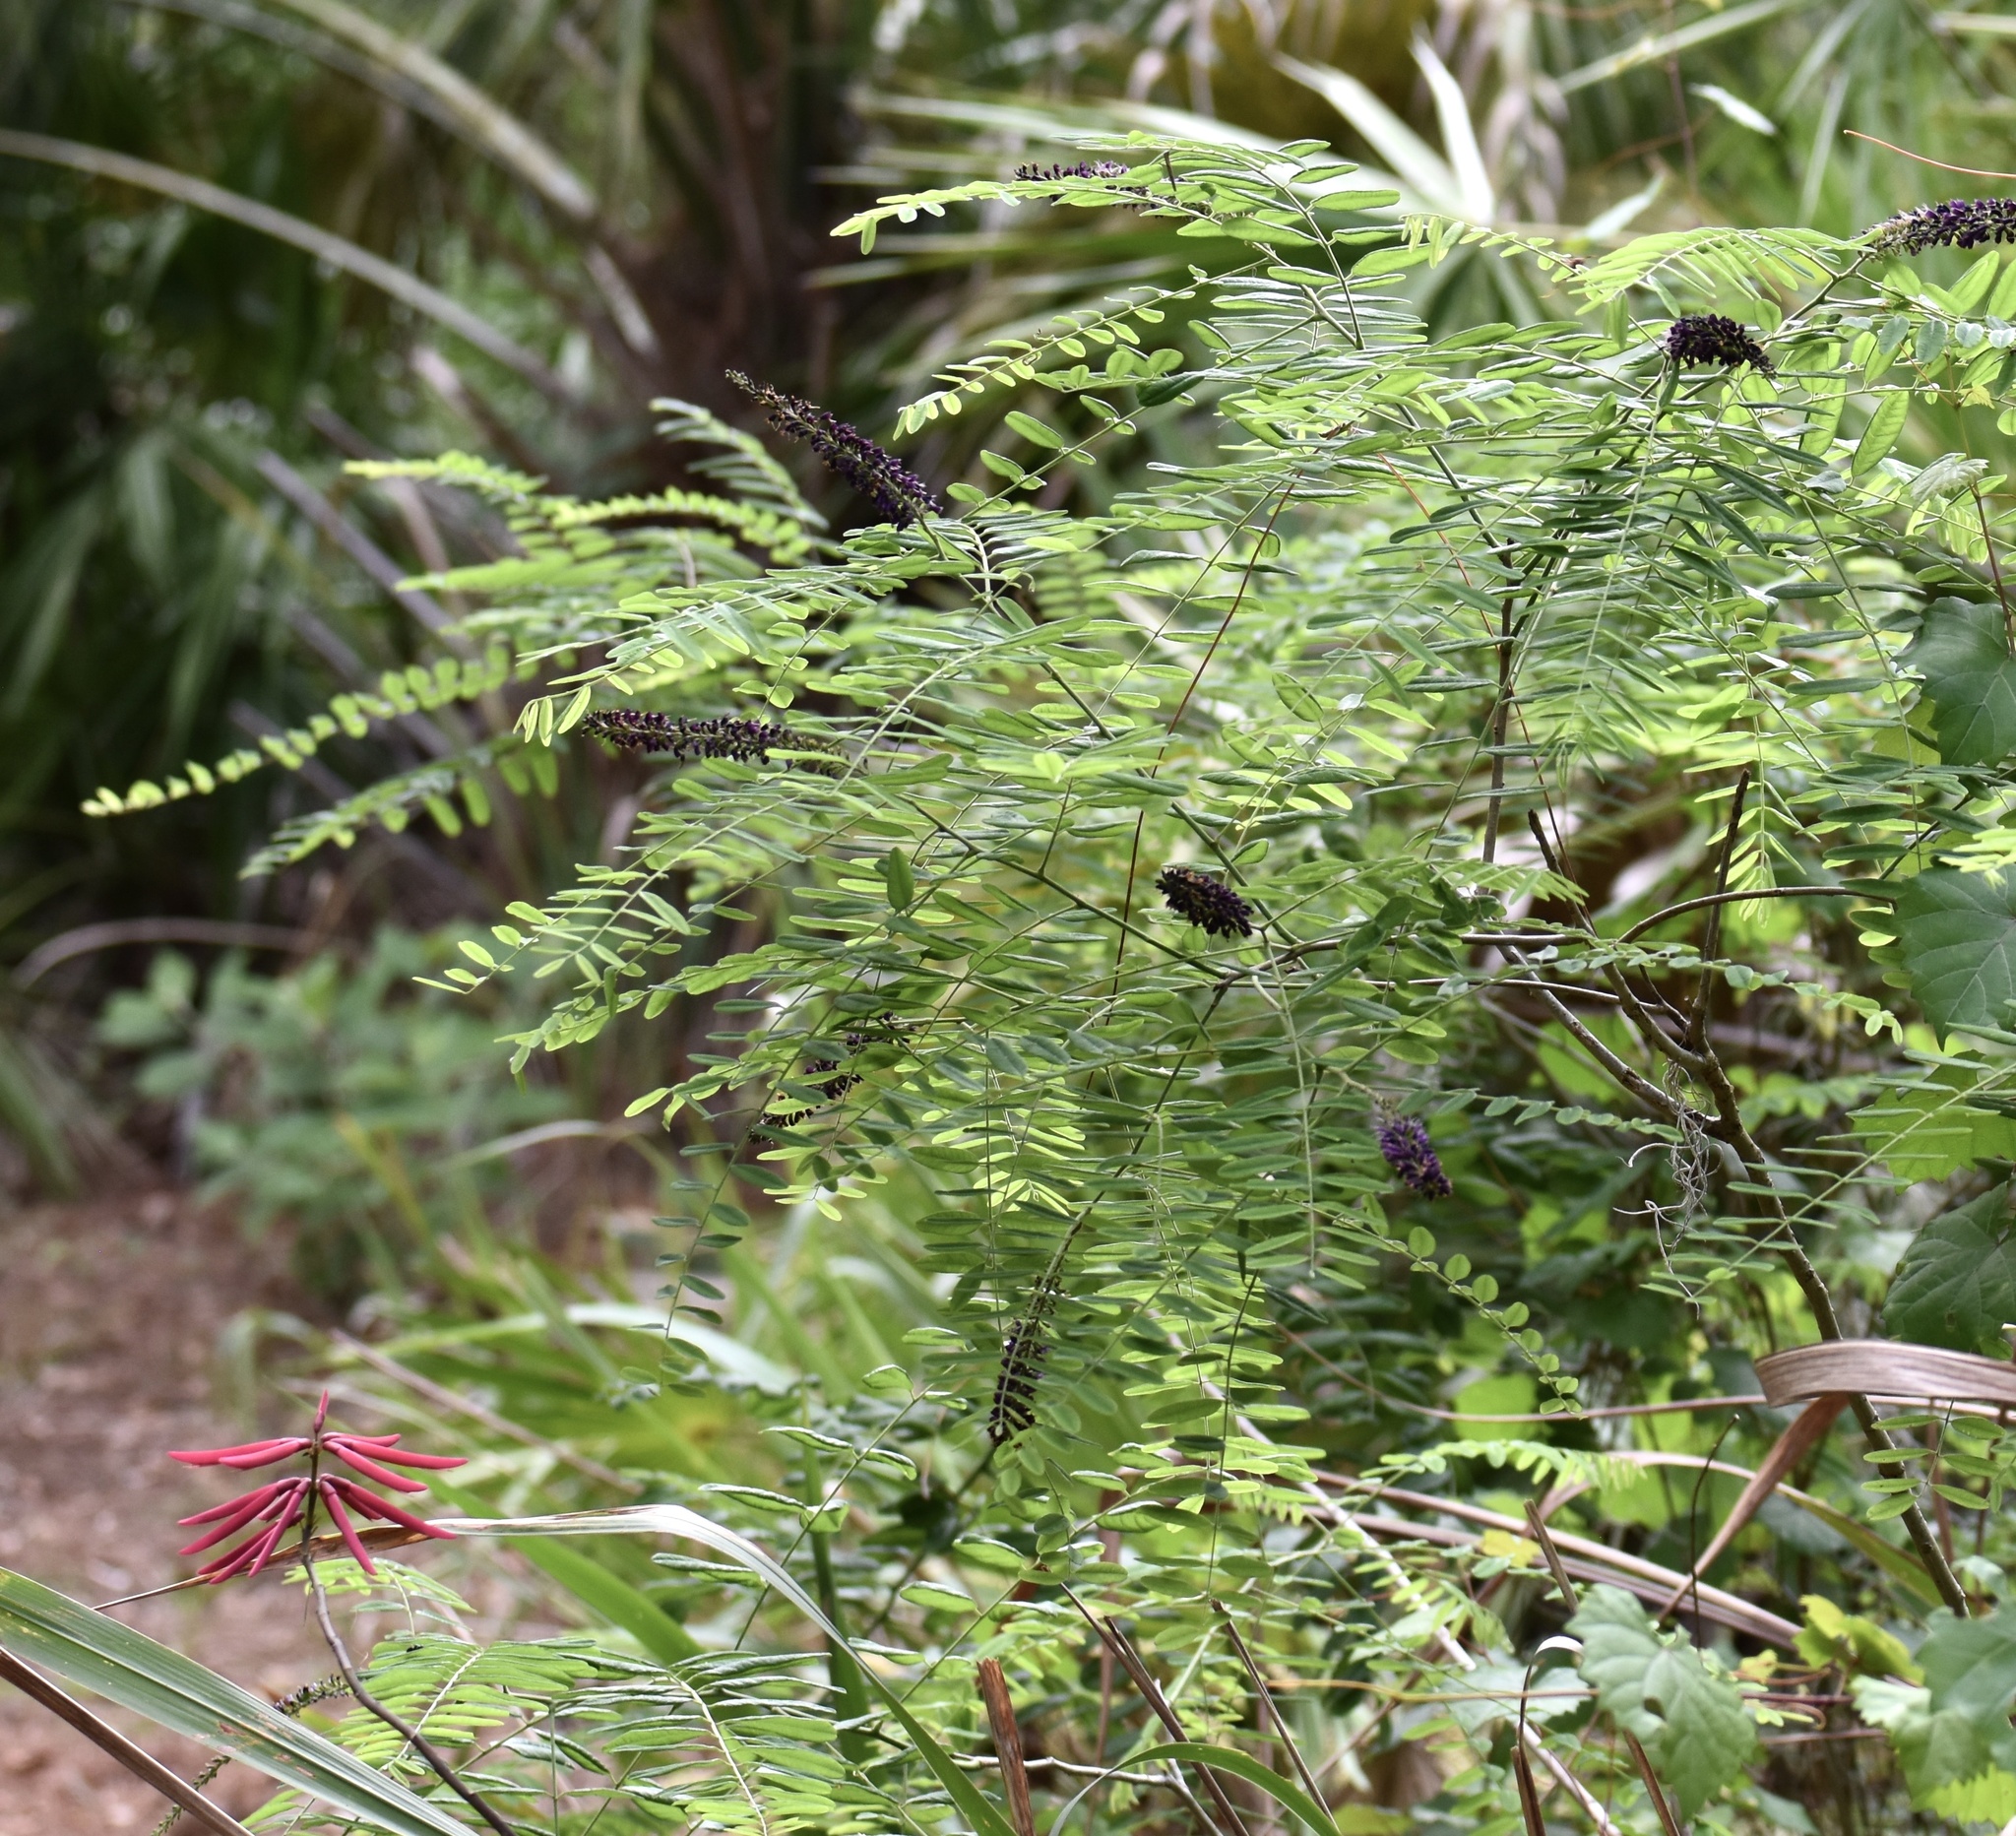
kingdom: Plantae
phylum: Tracheophyta
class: Magnoliopsida
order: Fabales
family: Fabaceae
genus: Amorpha
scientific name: Amorpha fruticosa
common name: False indigo
